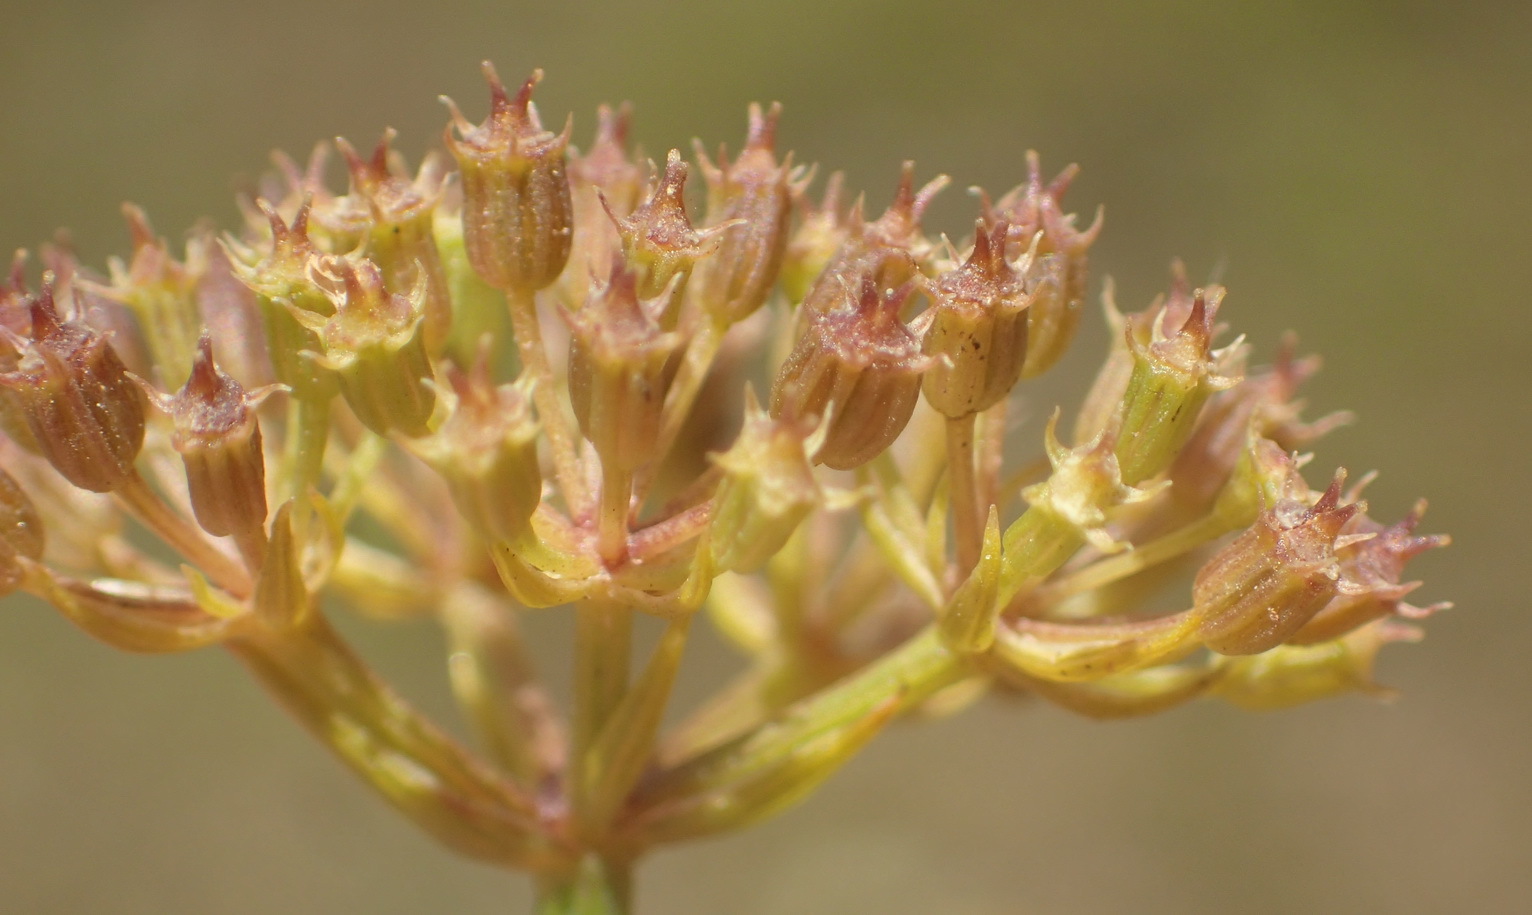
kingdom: Plantae
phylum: Tracheophyta
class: Magnoliopsida
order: Apiales
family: Apiaceae
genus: Itasina
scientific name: Itasina filifolia
